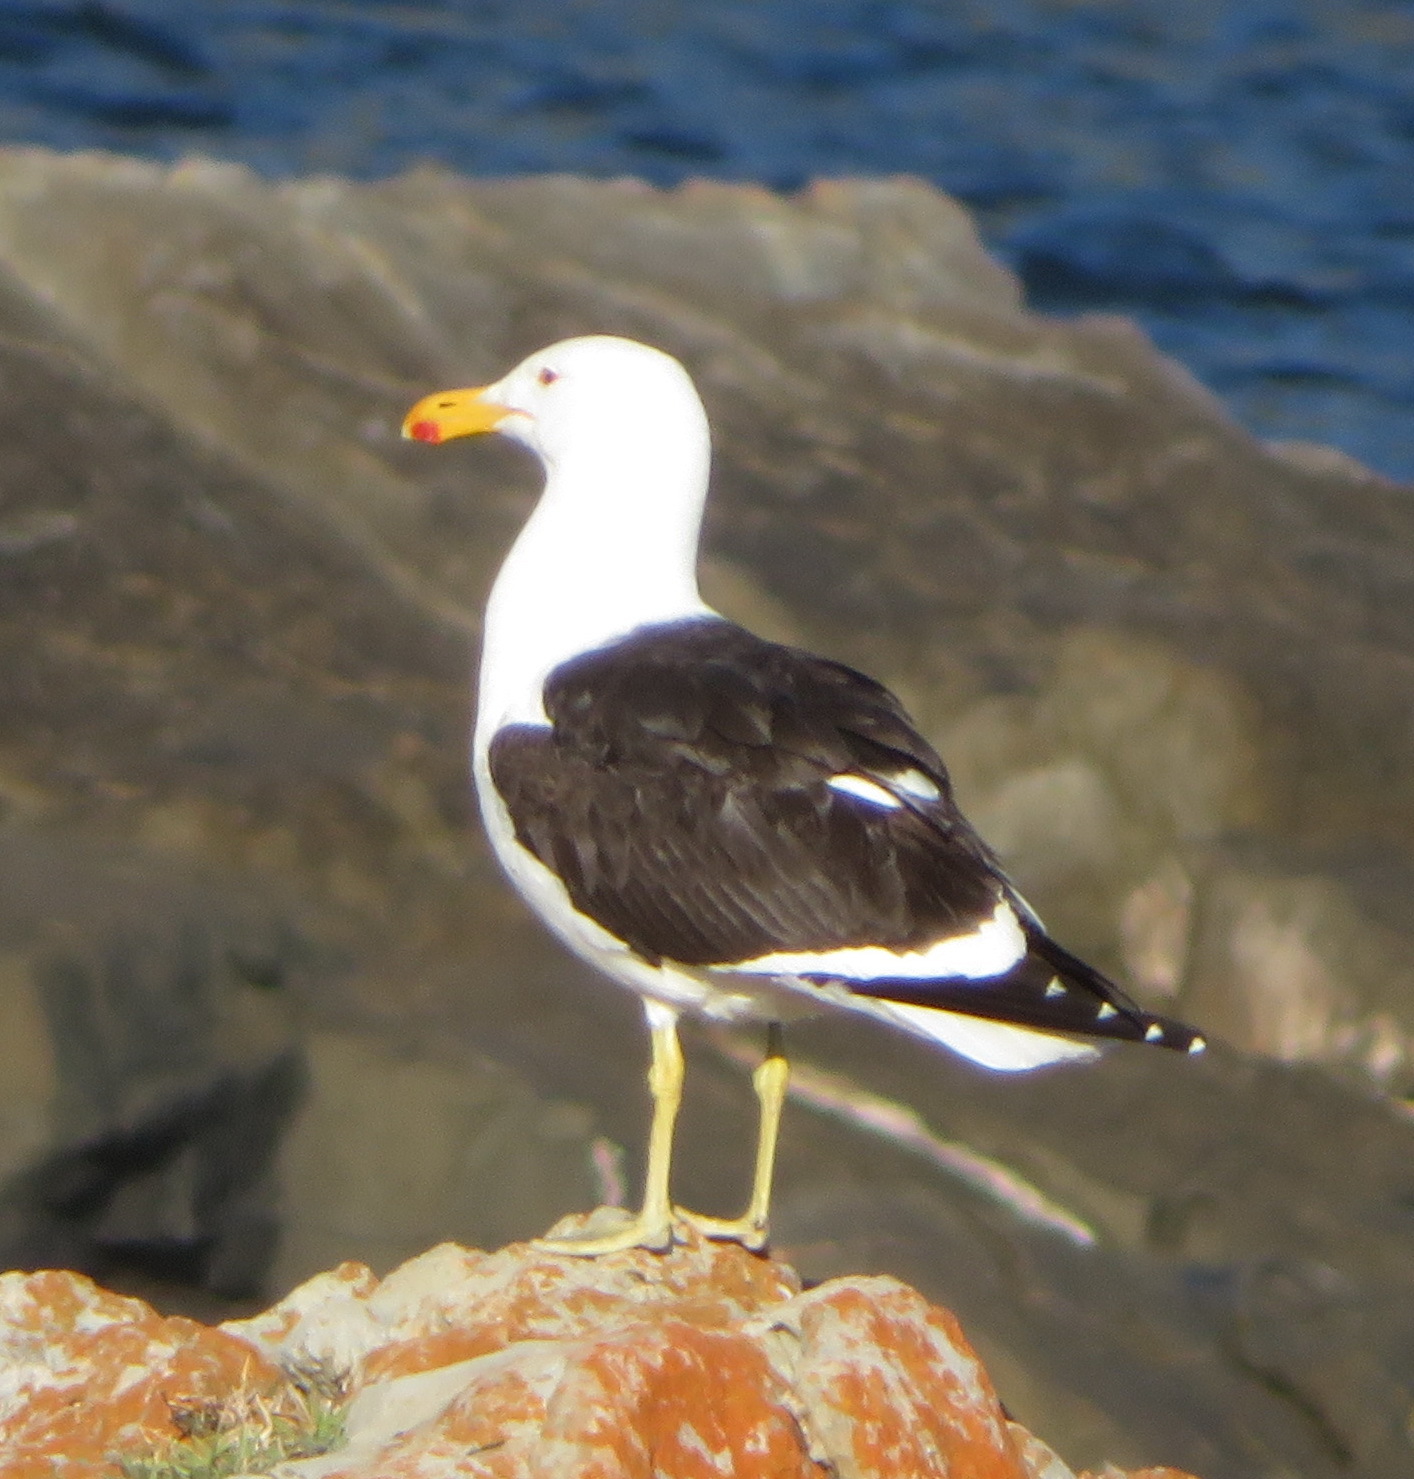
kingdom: Animalia
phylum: Chordata
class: Aves
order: Charadriiformes
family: Laridae
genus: Larus
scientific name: Larus dominicanus
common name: Kelp gull
